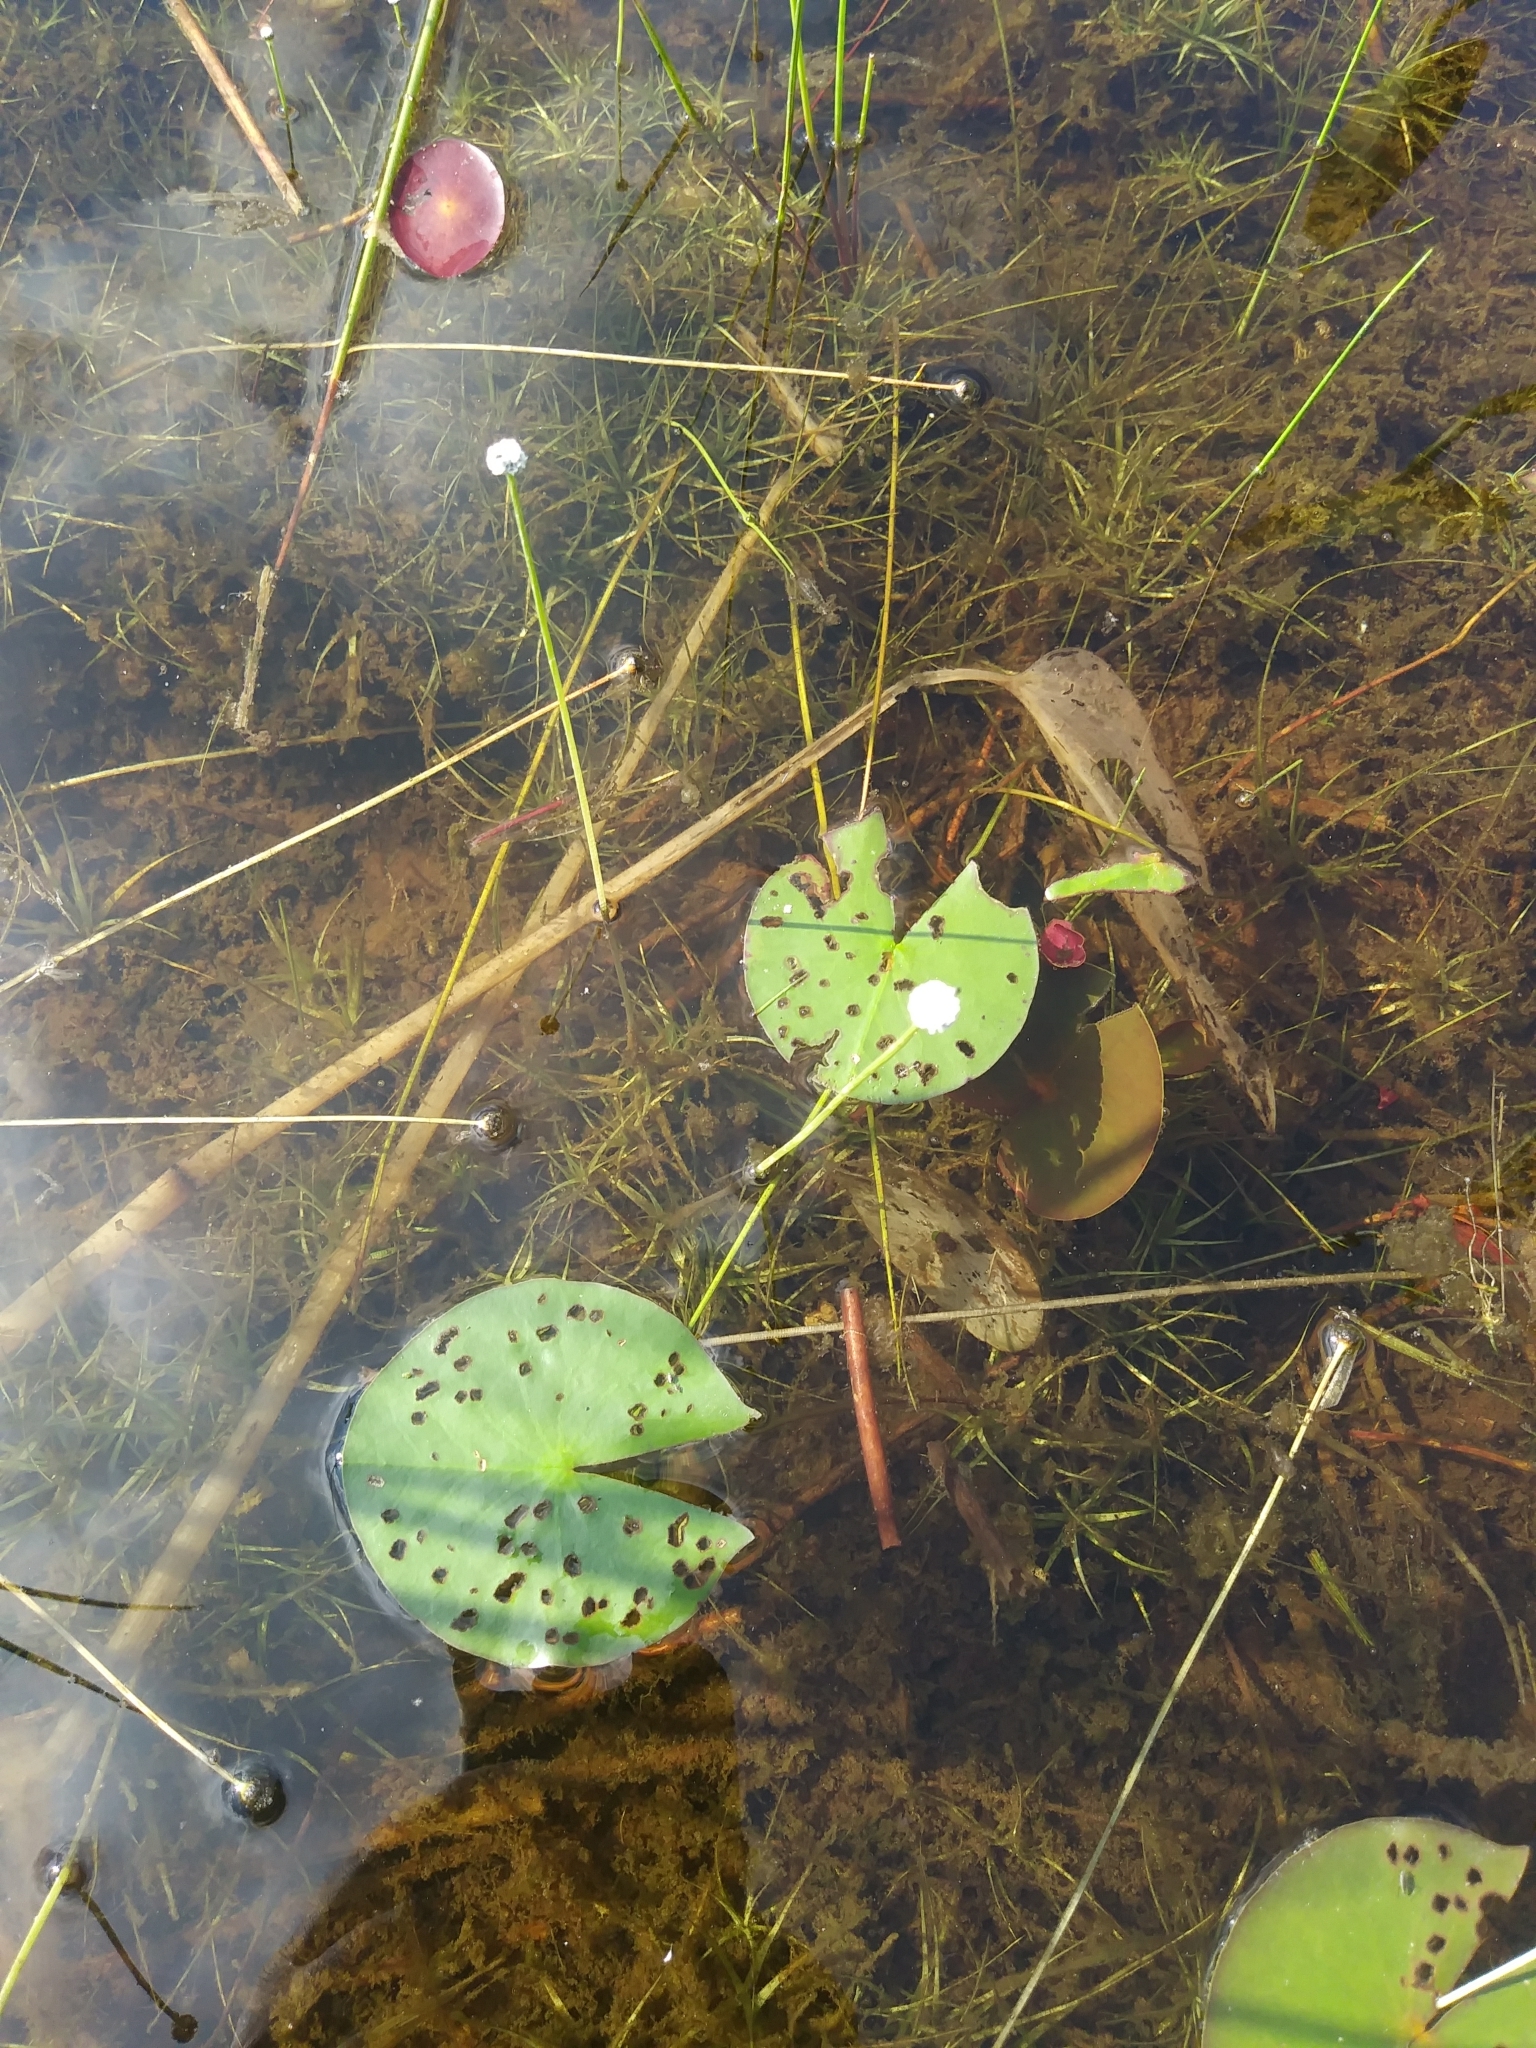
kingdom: Plantae
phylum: Tracheophyta
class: Liliopsida
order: Poales
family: Eriocaulaceae
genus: Eriocaulon
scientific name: Eriocaulon aquaticum
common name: Pipewort
